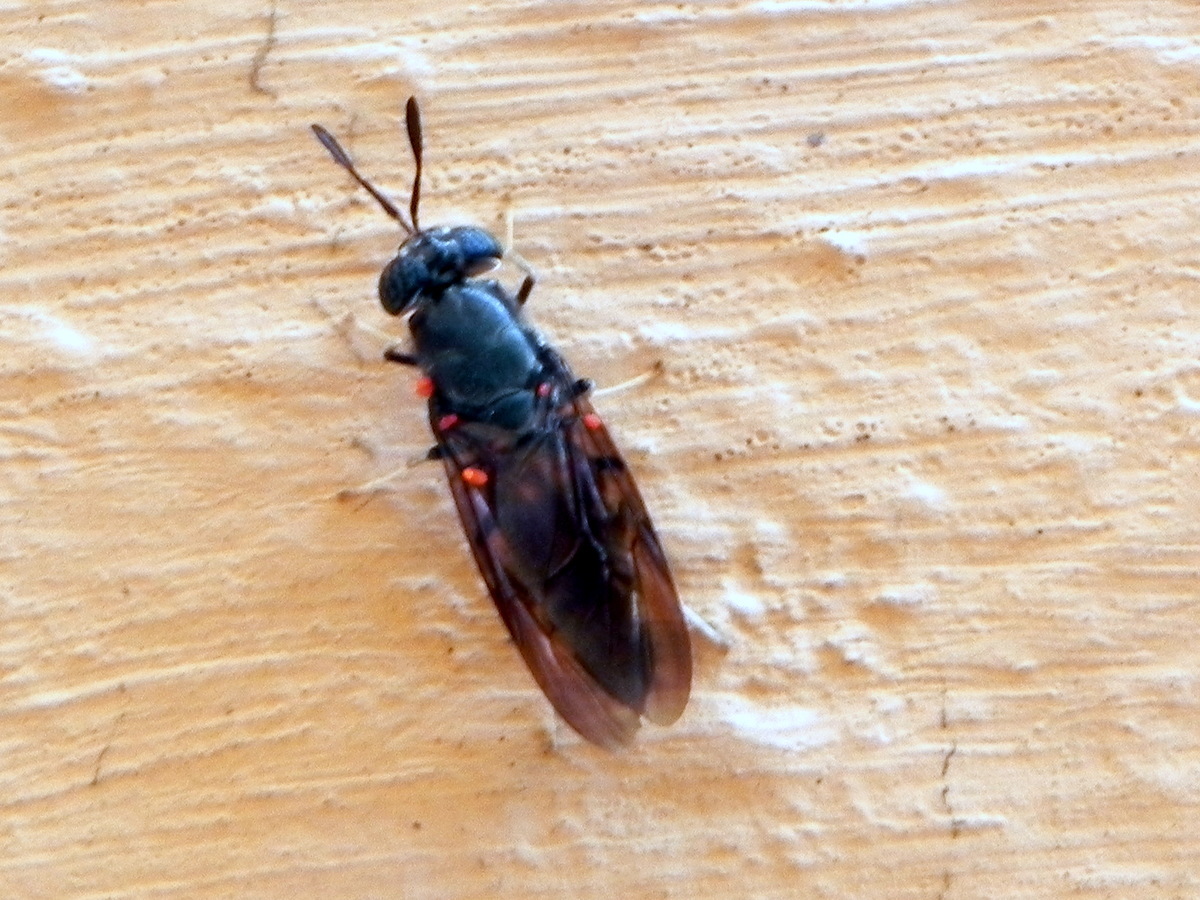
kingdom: Animalia
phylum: Arthropoda
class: Insecta
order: Diptera
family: Stratiomyidae
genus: Hermetia
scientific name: Hermetia illucens
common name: Black soldier fly
